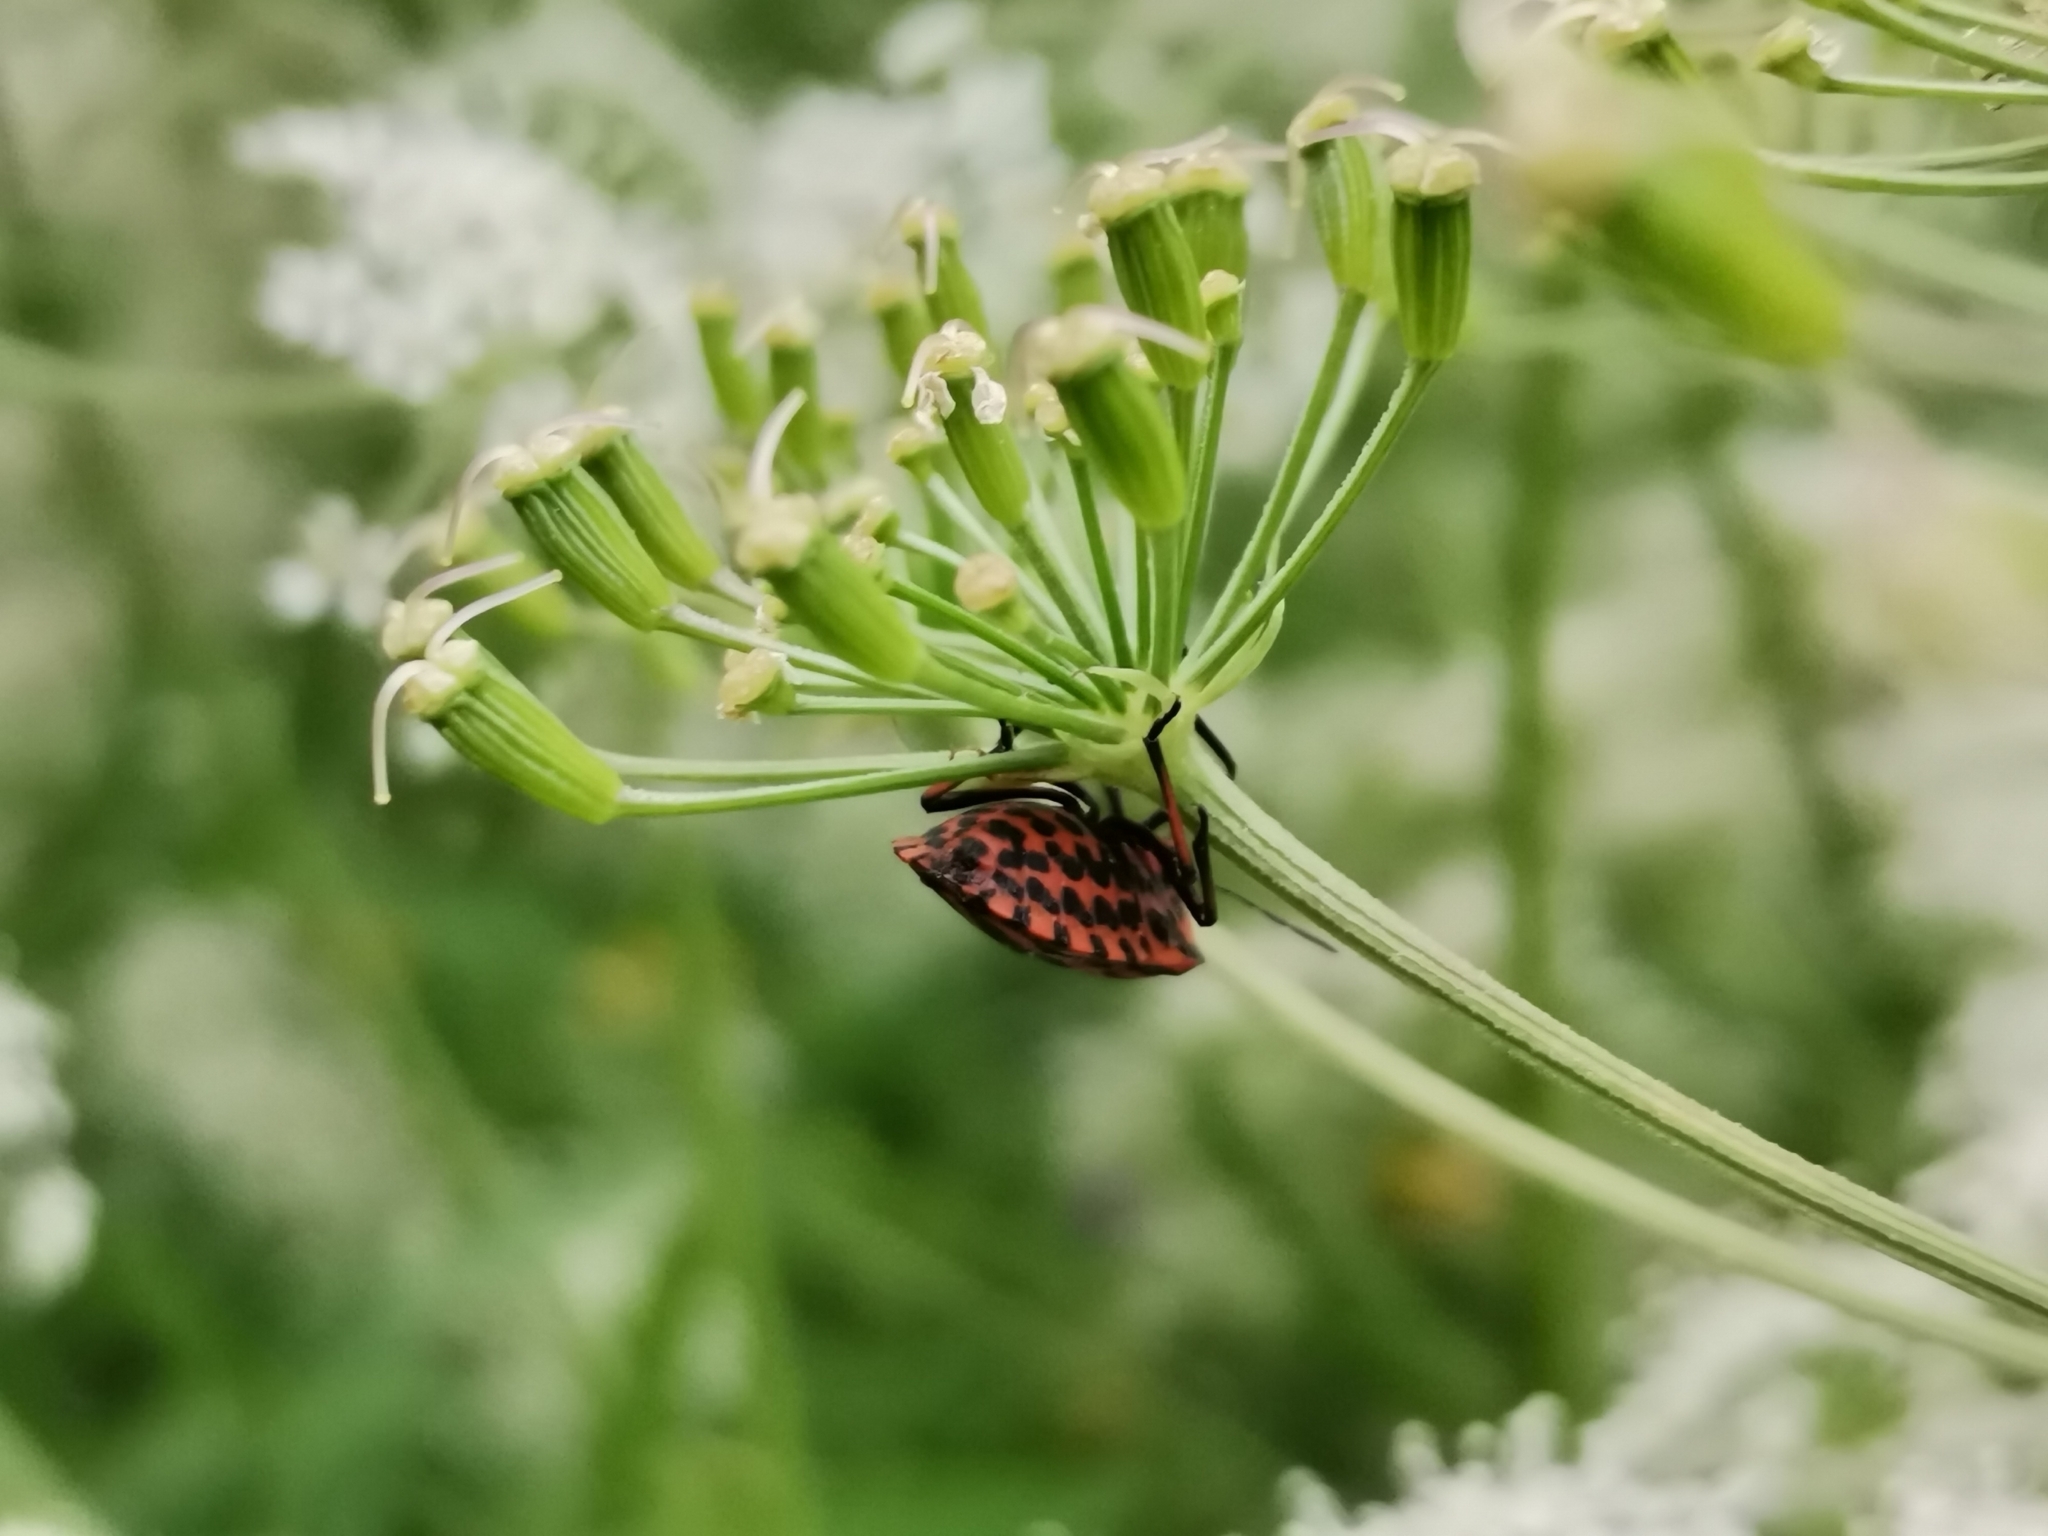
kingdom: Animalia
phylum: Arthropoda
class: Insecta
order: Hemiptera
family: Pentatomidae
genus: Graphosoma
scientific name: Graphosoma italicum
